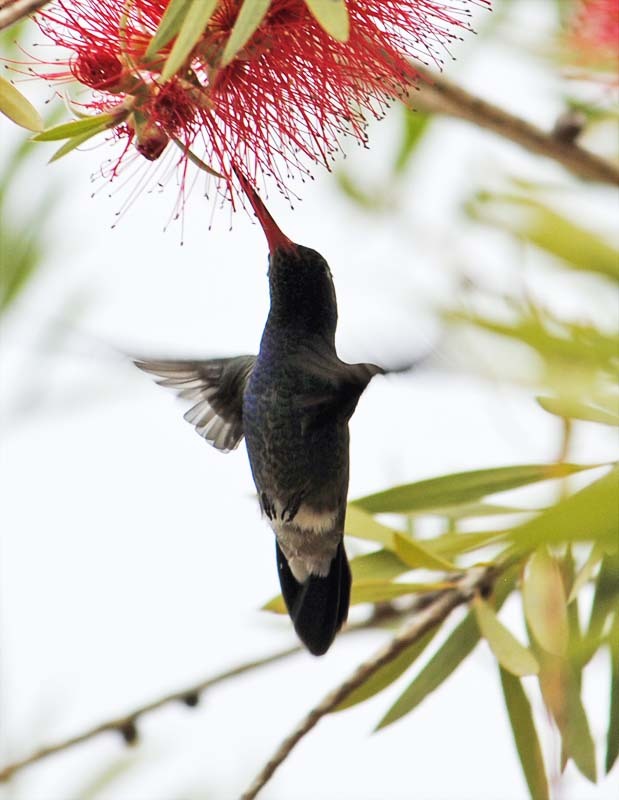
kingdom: Animalia
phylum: Chordata
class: Aves
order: Apodiformes
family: Trochilidae
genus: Cynanthus
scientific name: Cynanthus latirostris
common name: Broad-billed hummingbird
